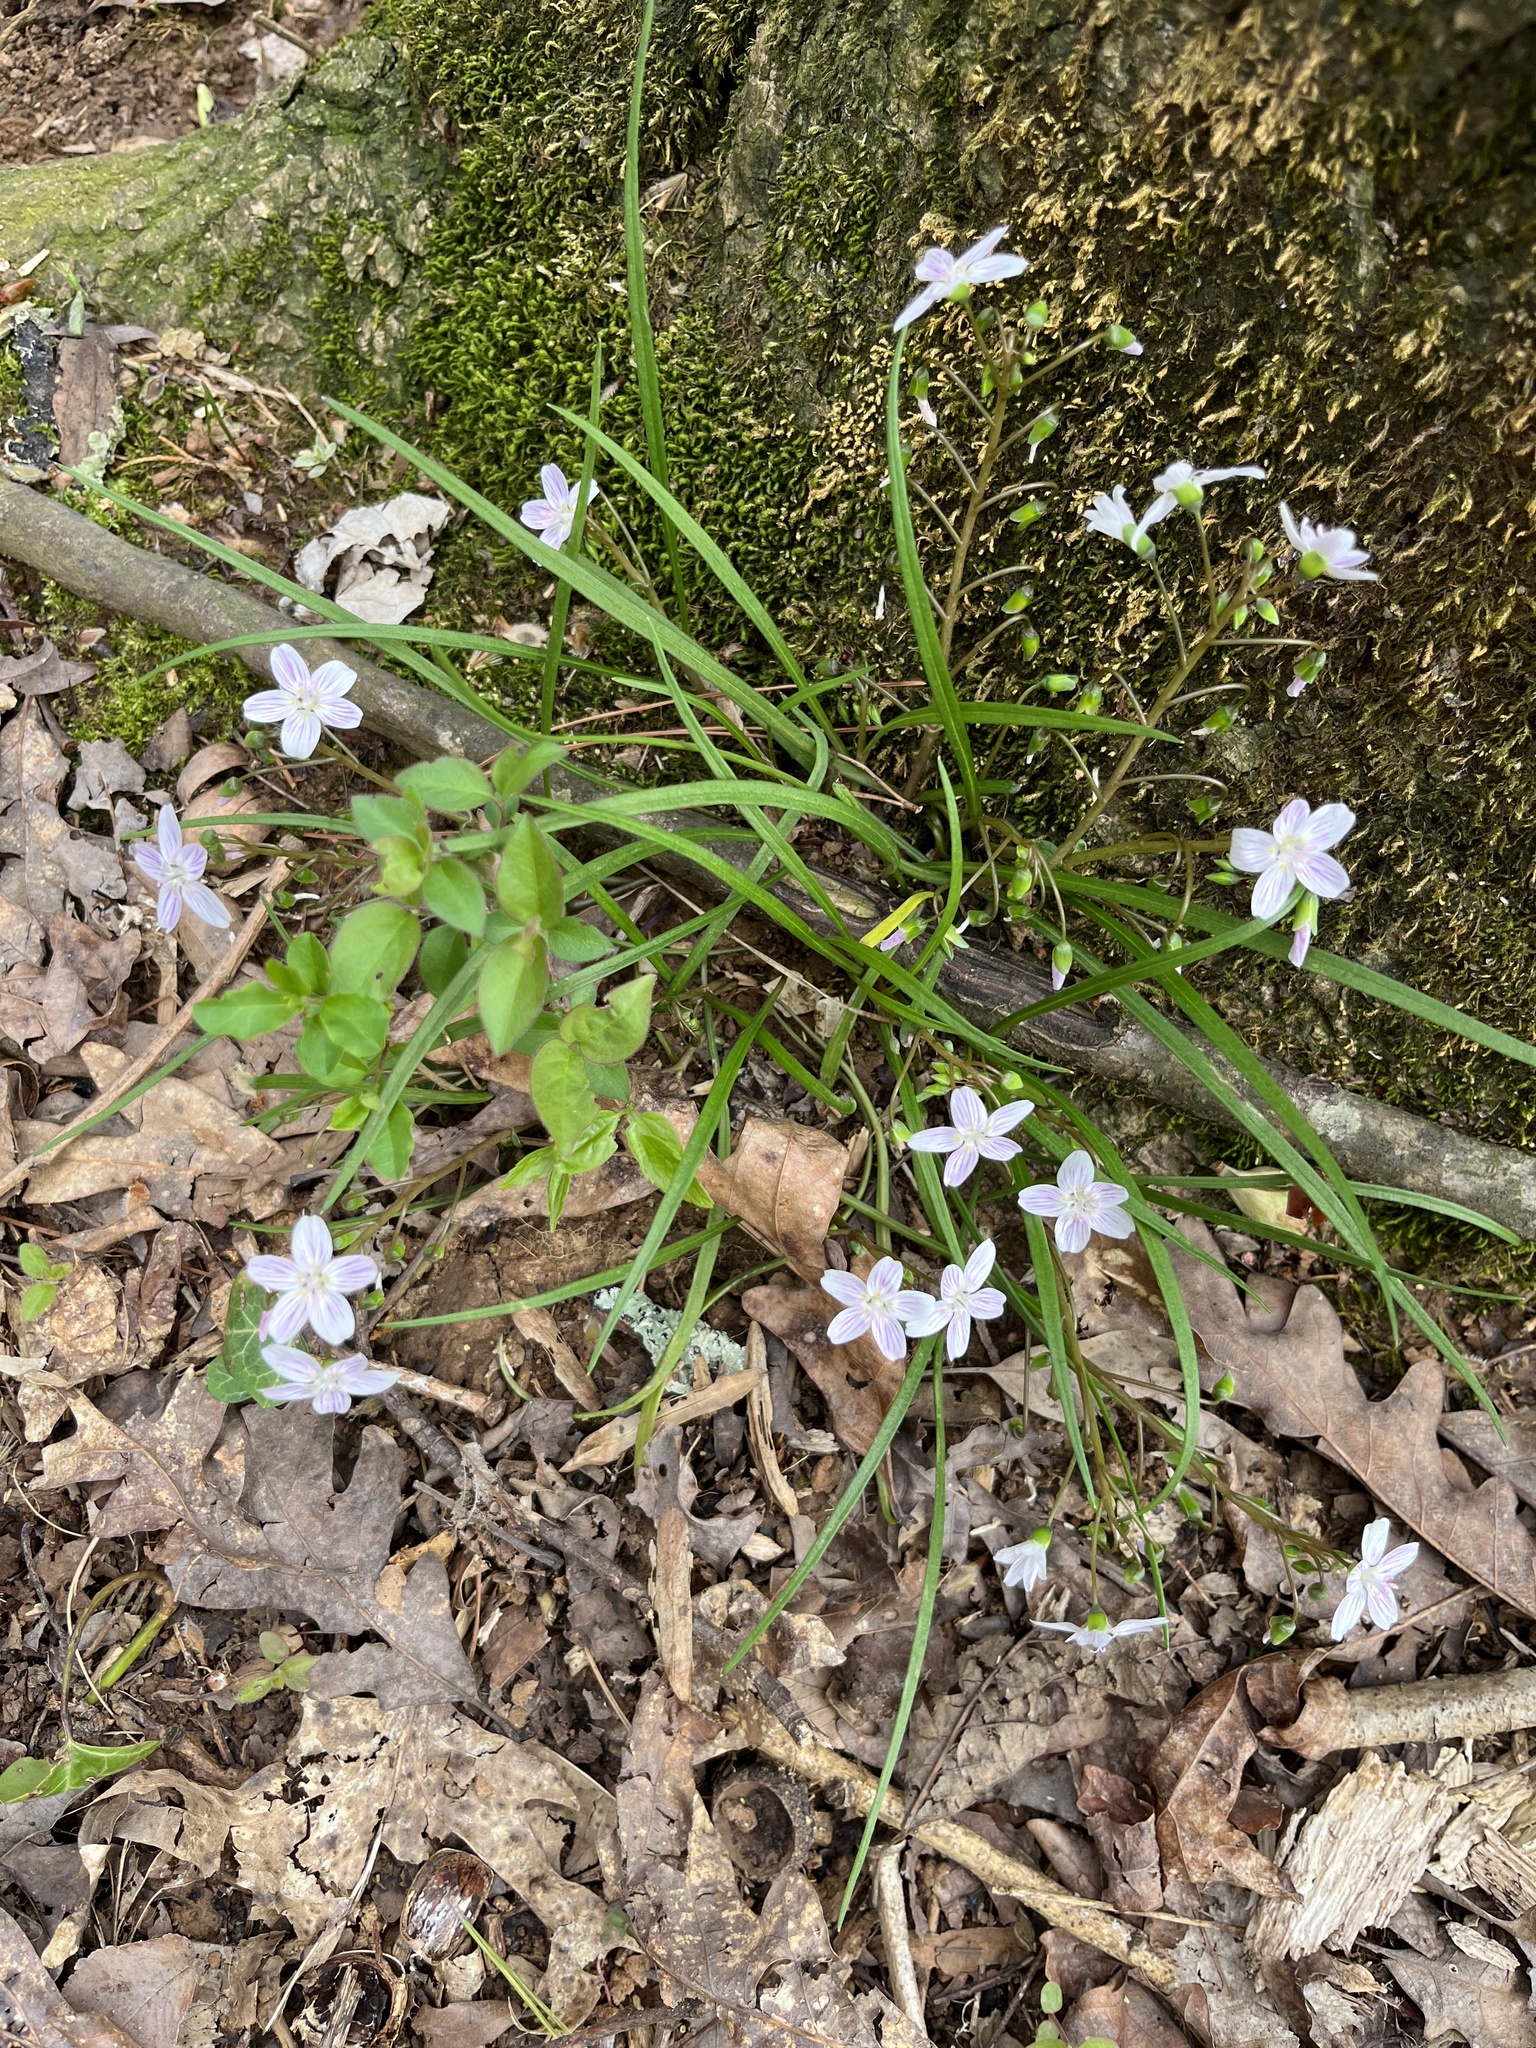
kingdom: Plantae
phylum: Tracheophyta
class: Magnoliopsida
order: Caryophyllales
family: Montiaceae
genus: Claytonia
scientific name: Claytonia virginica
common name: Virginia springbeauty
